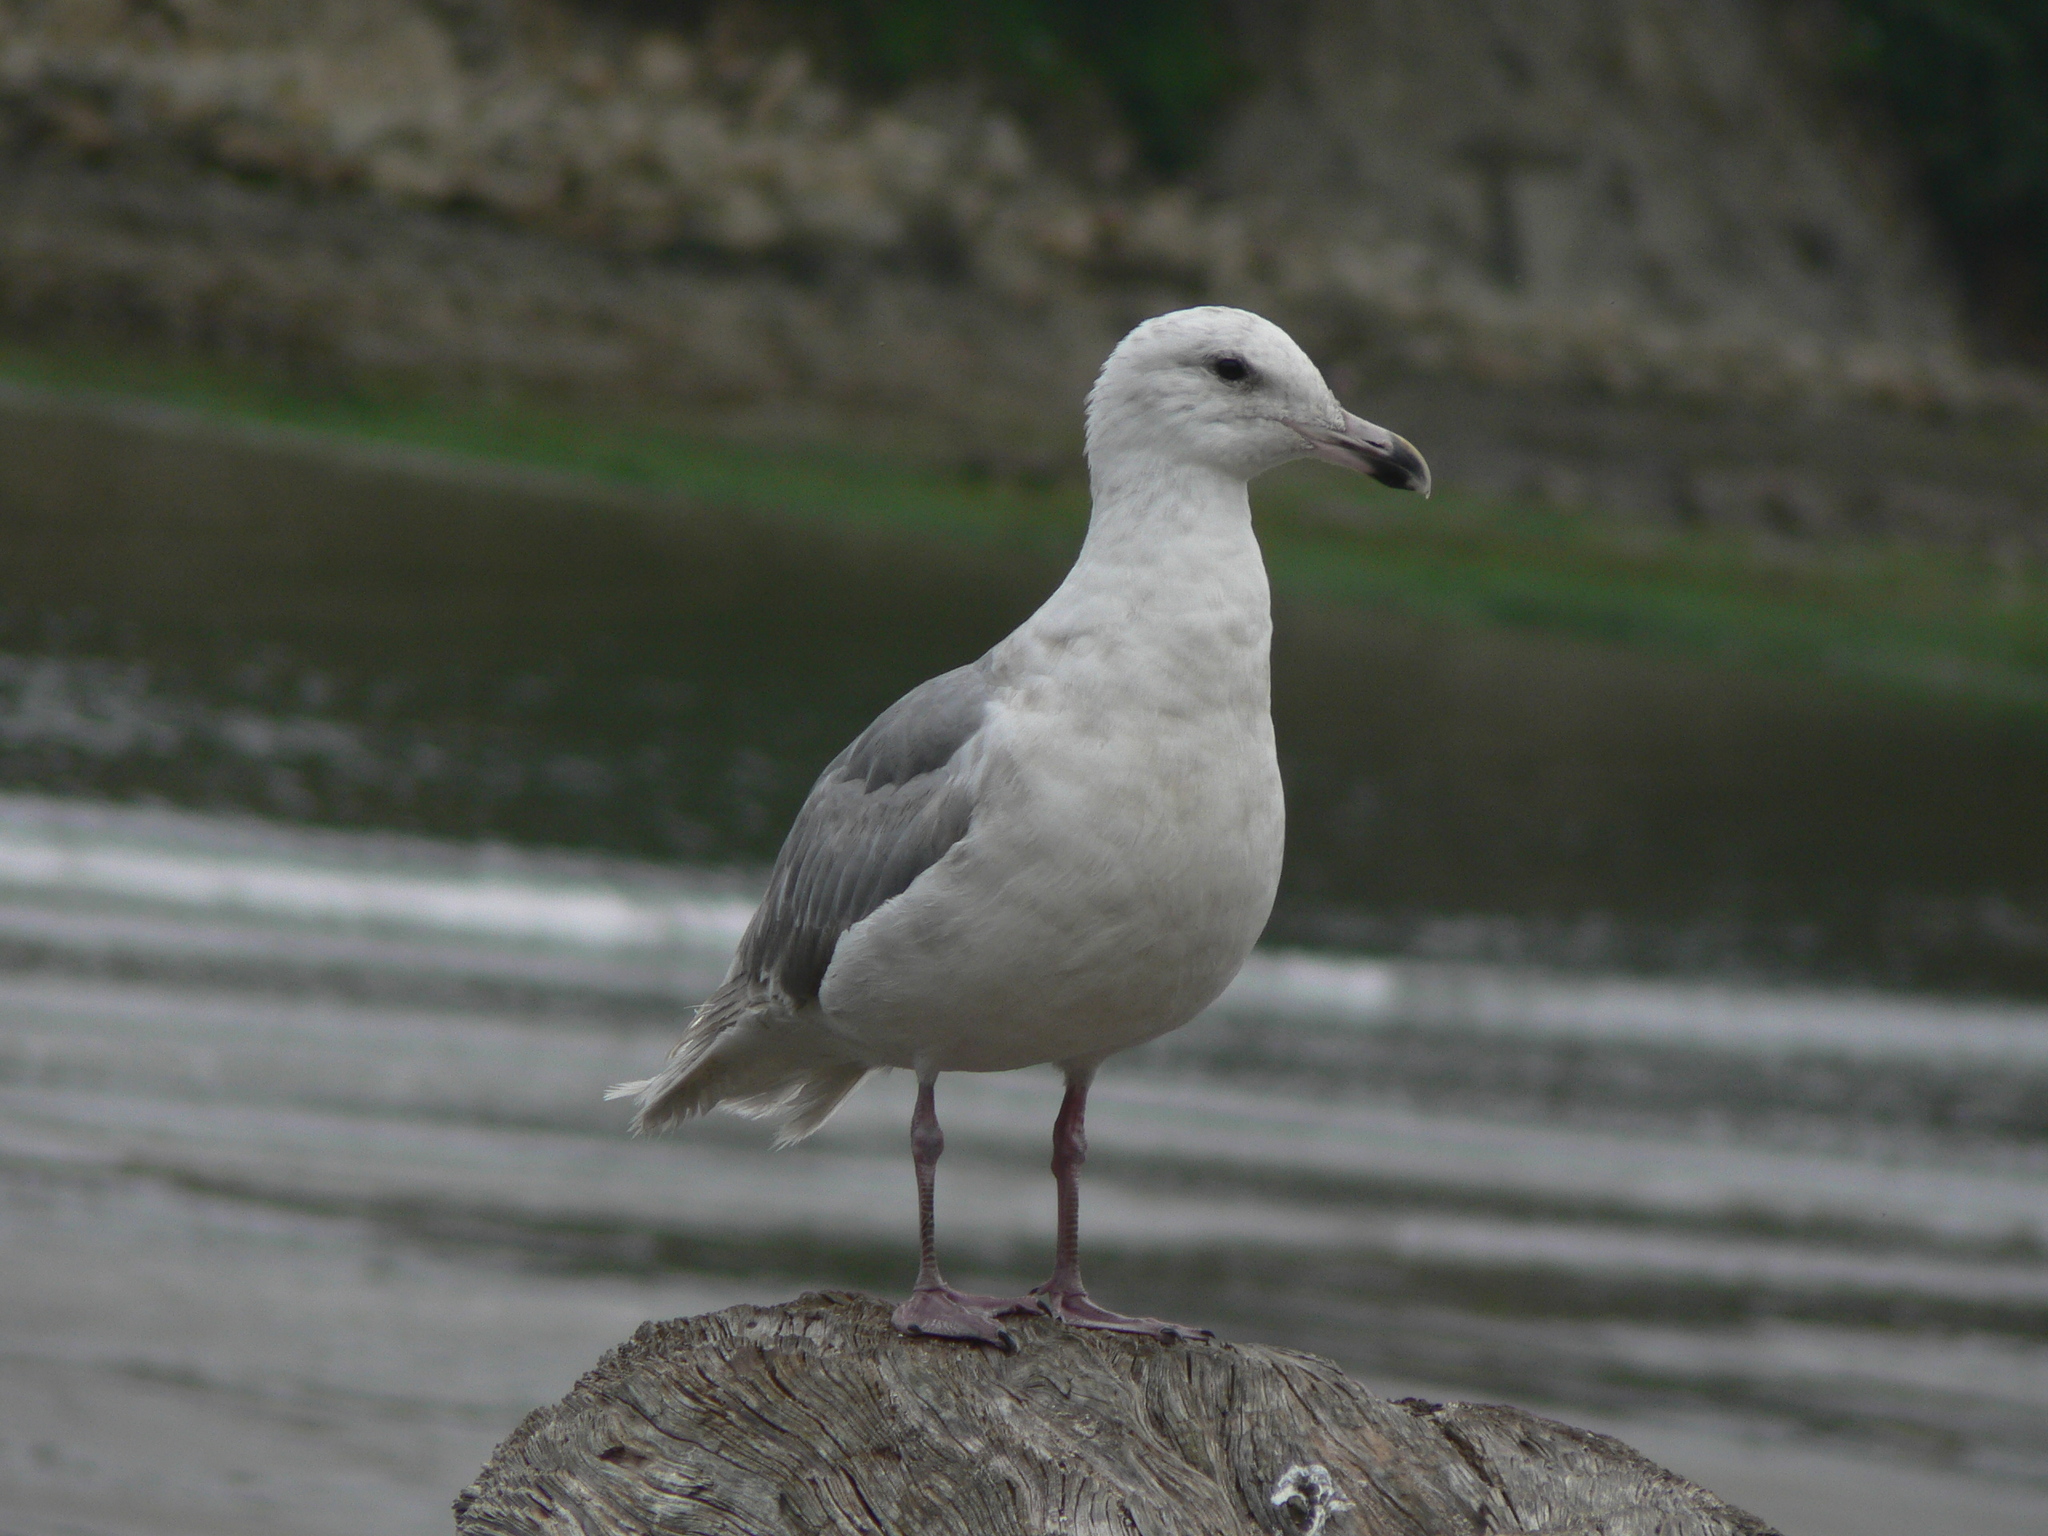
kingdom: Animalia
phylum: Chordata
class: Aves
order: Charadriiformes
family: Laridae
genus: Larus
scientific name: Larus glaucescens
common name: Glaucous-winged gull
